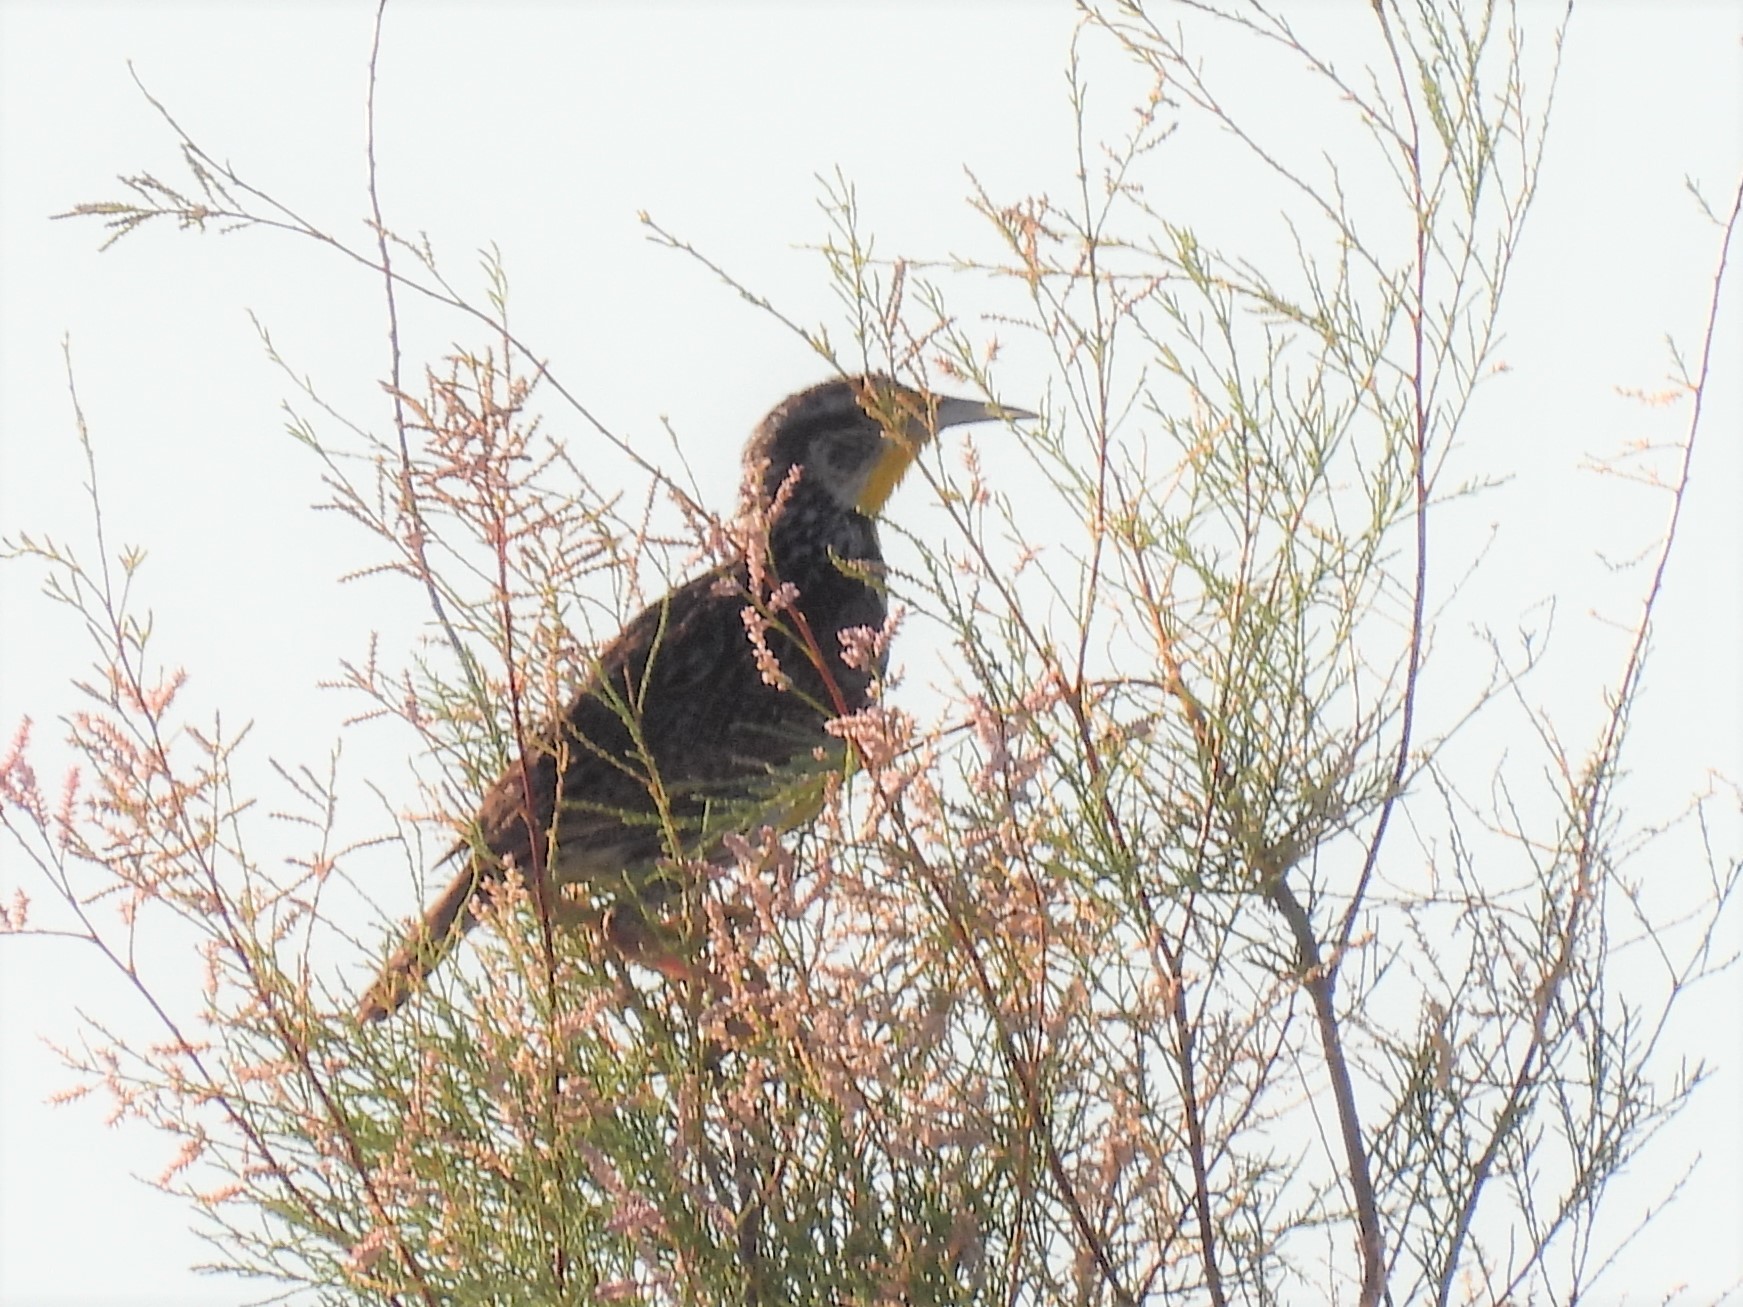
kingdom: Animalia
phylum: Chordata
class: Aves
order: Passeriformes
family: Icteridae
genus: Sturnella
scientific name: Sturnella neglecta
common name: Western meadowlark
